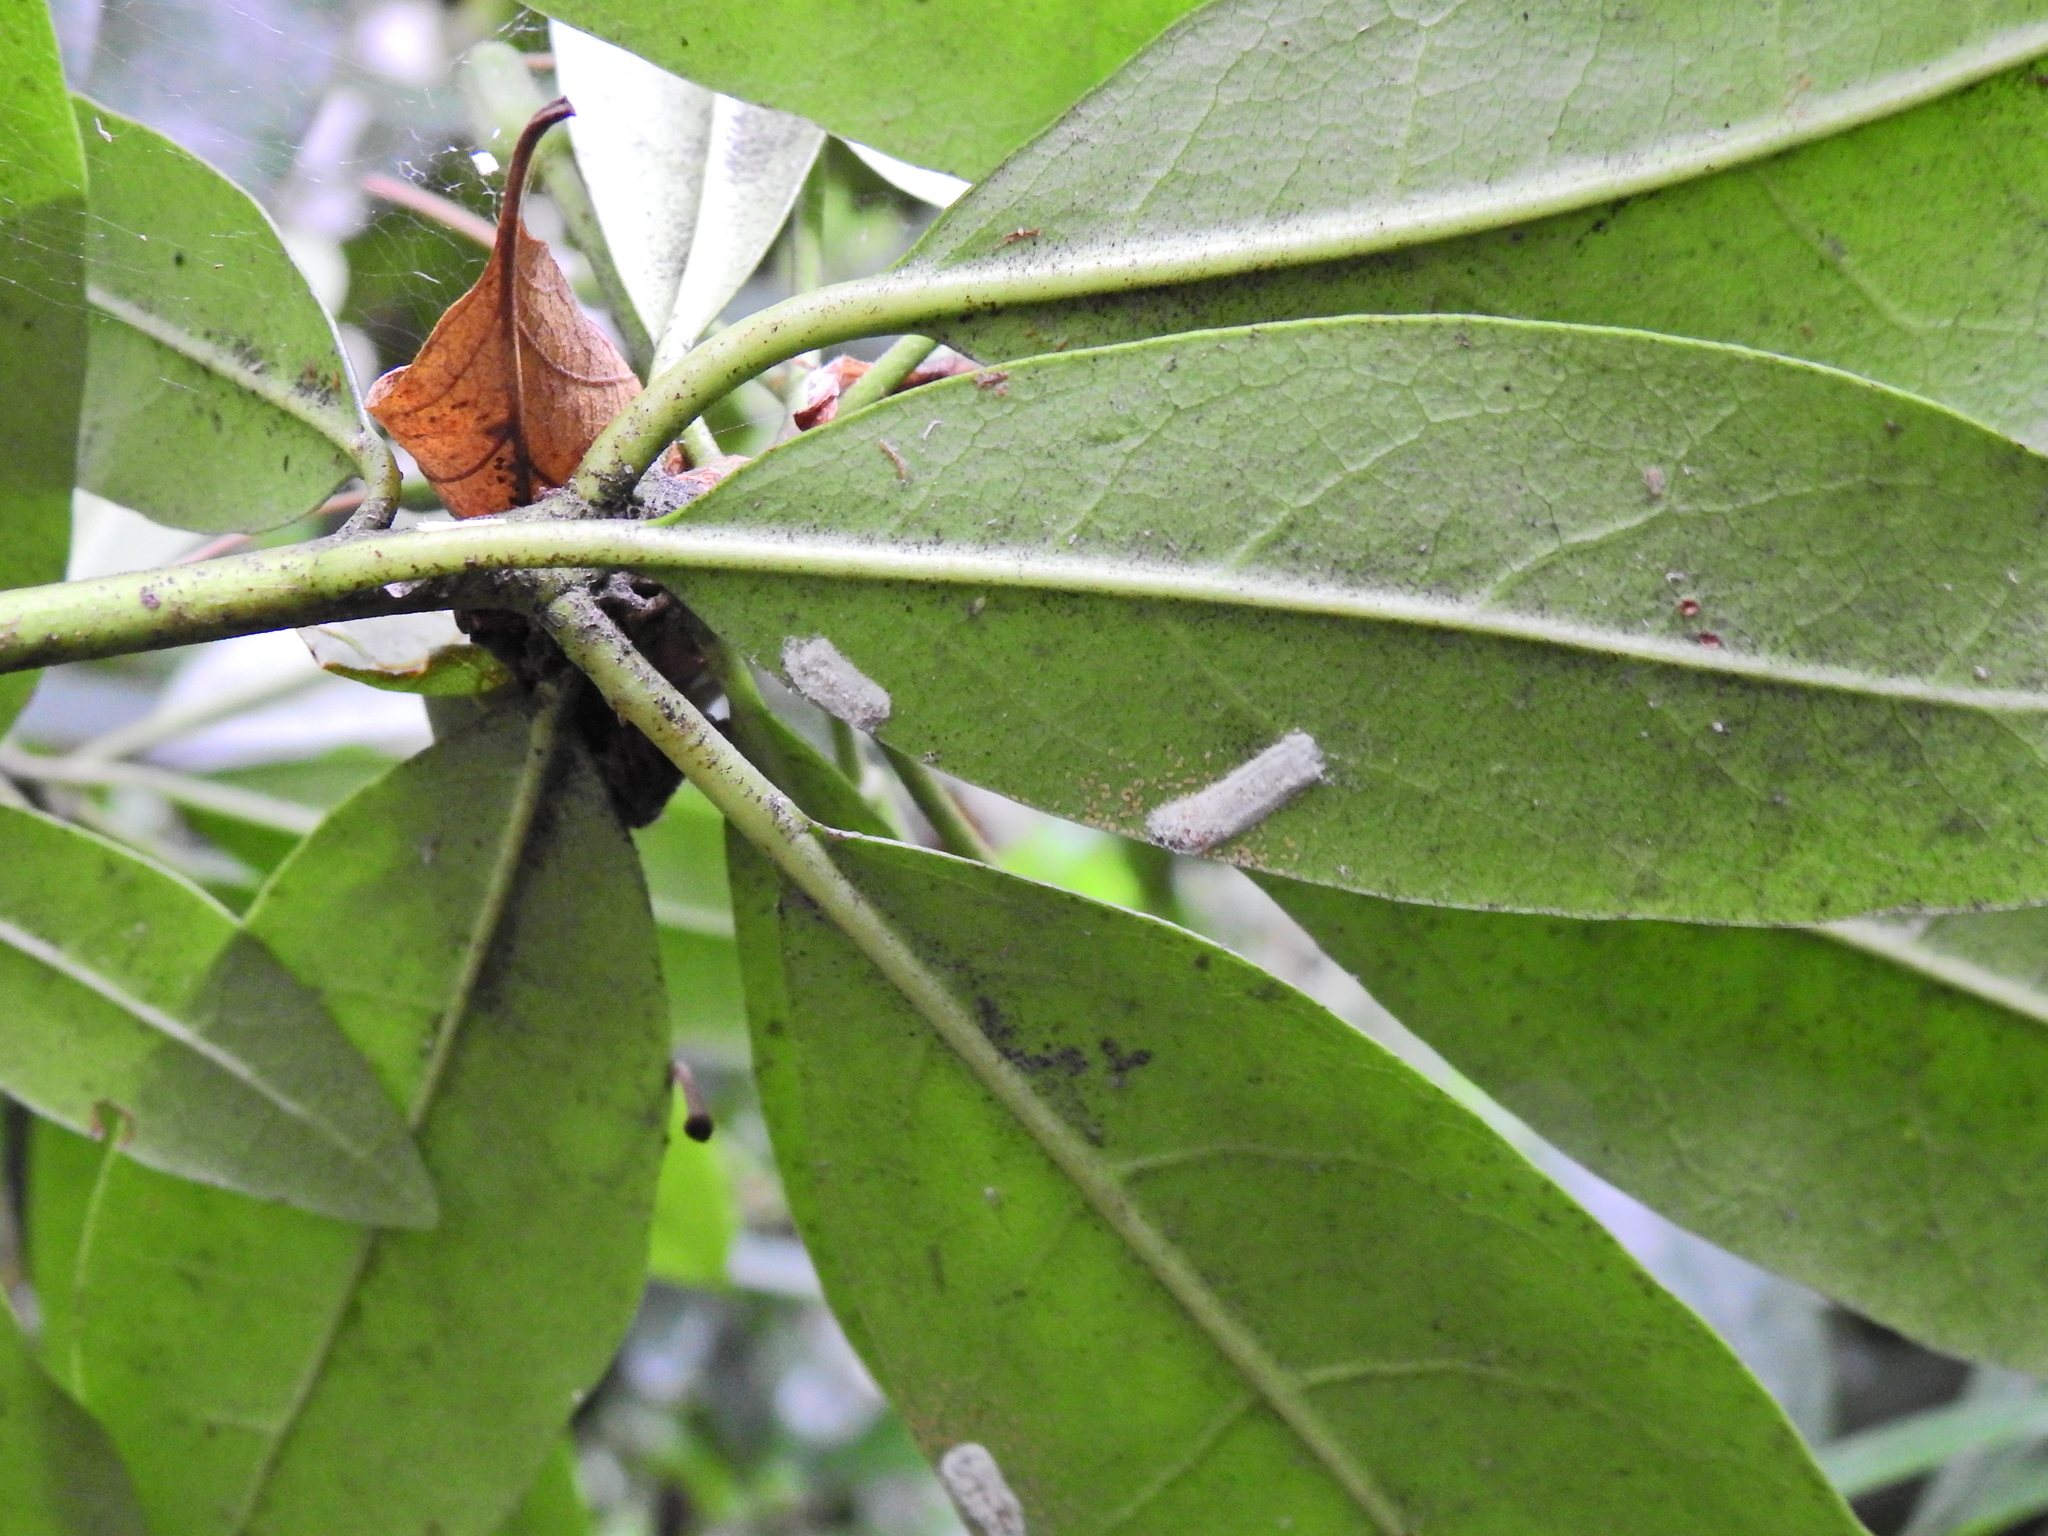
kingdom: Animalia
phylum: Arthropoda
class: Insecta
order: Hemiptera
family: Coccidae
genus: Pulvinaria
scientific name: Pulvinaria floccifera
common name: Cottony camellia scale
